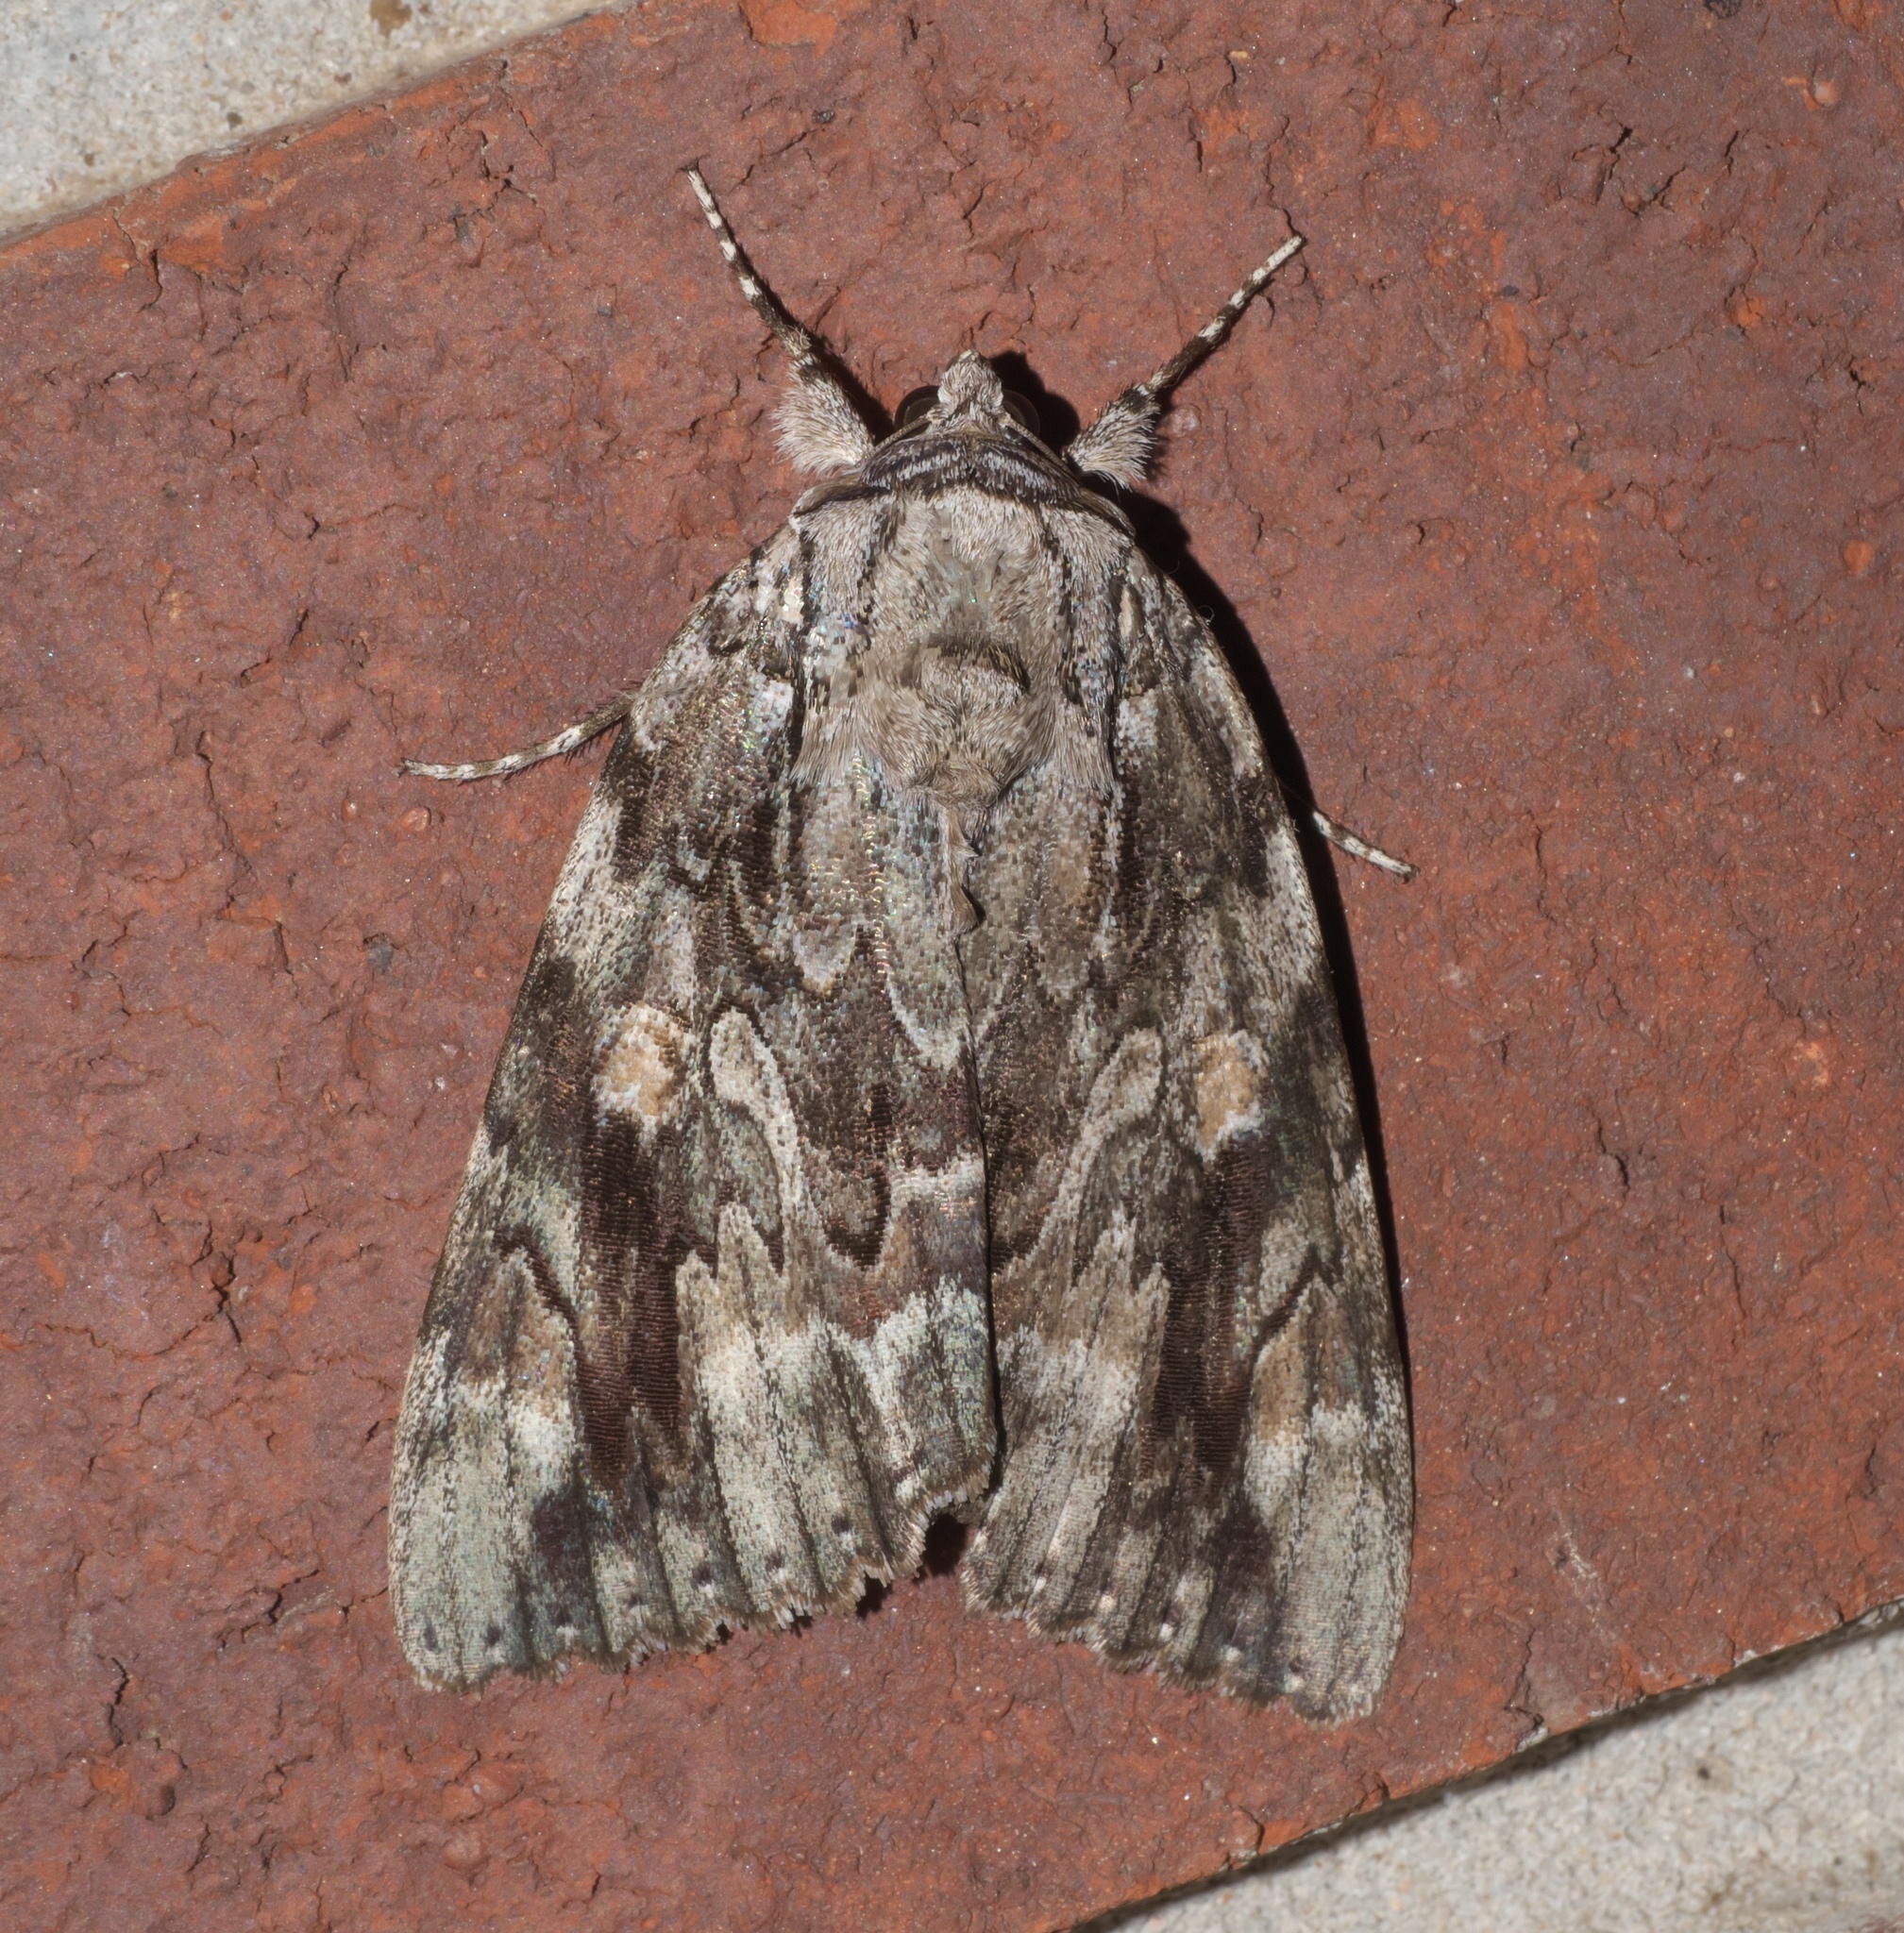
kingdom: Animalia
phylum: Arthropoda
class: Insecta
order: Lepidoptera
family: Erebidae
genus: Catocala
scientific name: Catocala maestosa
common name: Sad underwing
